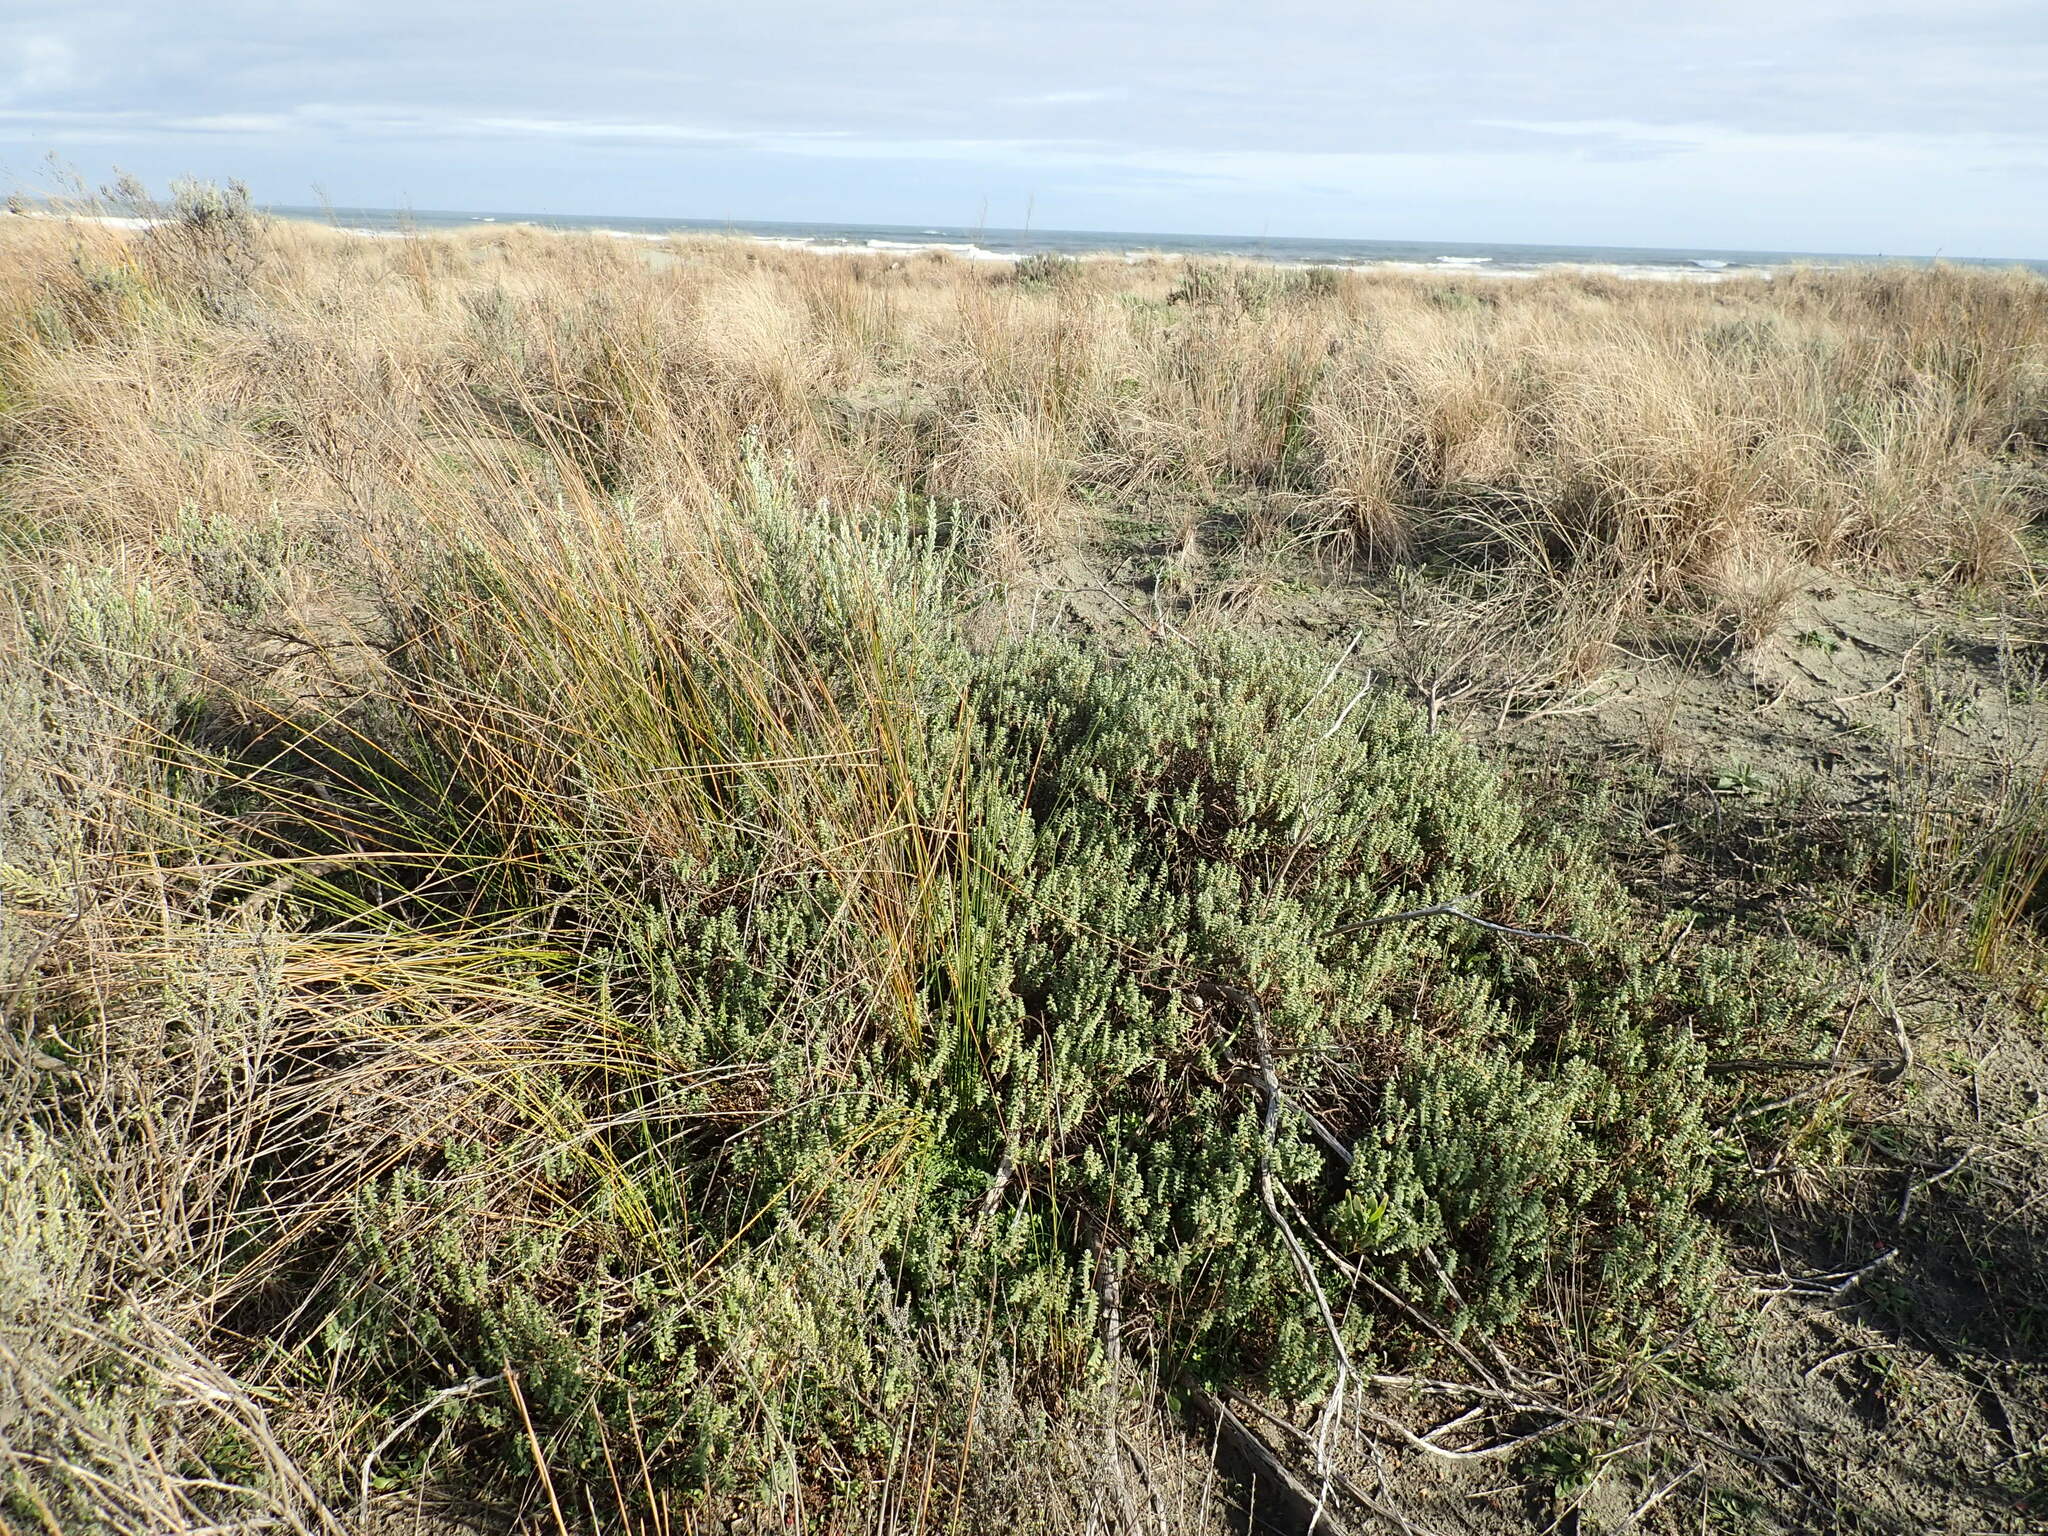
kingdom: Plantae
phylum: Tracheophyta
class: Magnoliopsida
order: Malvales
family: Thymelaeaceae
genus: Pimelea
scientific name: Pimelea villosa
